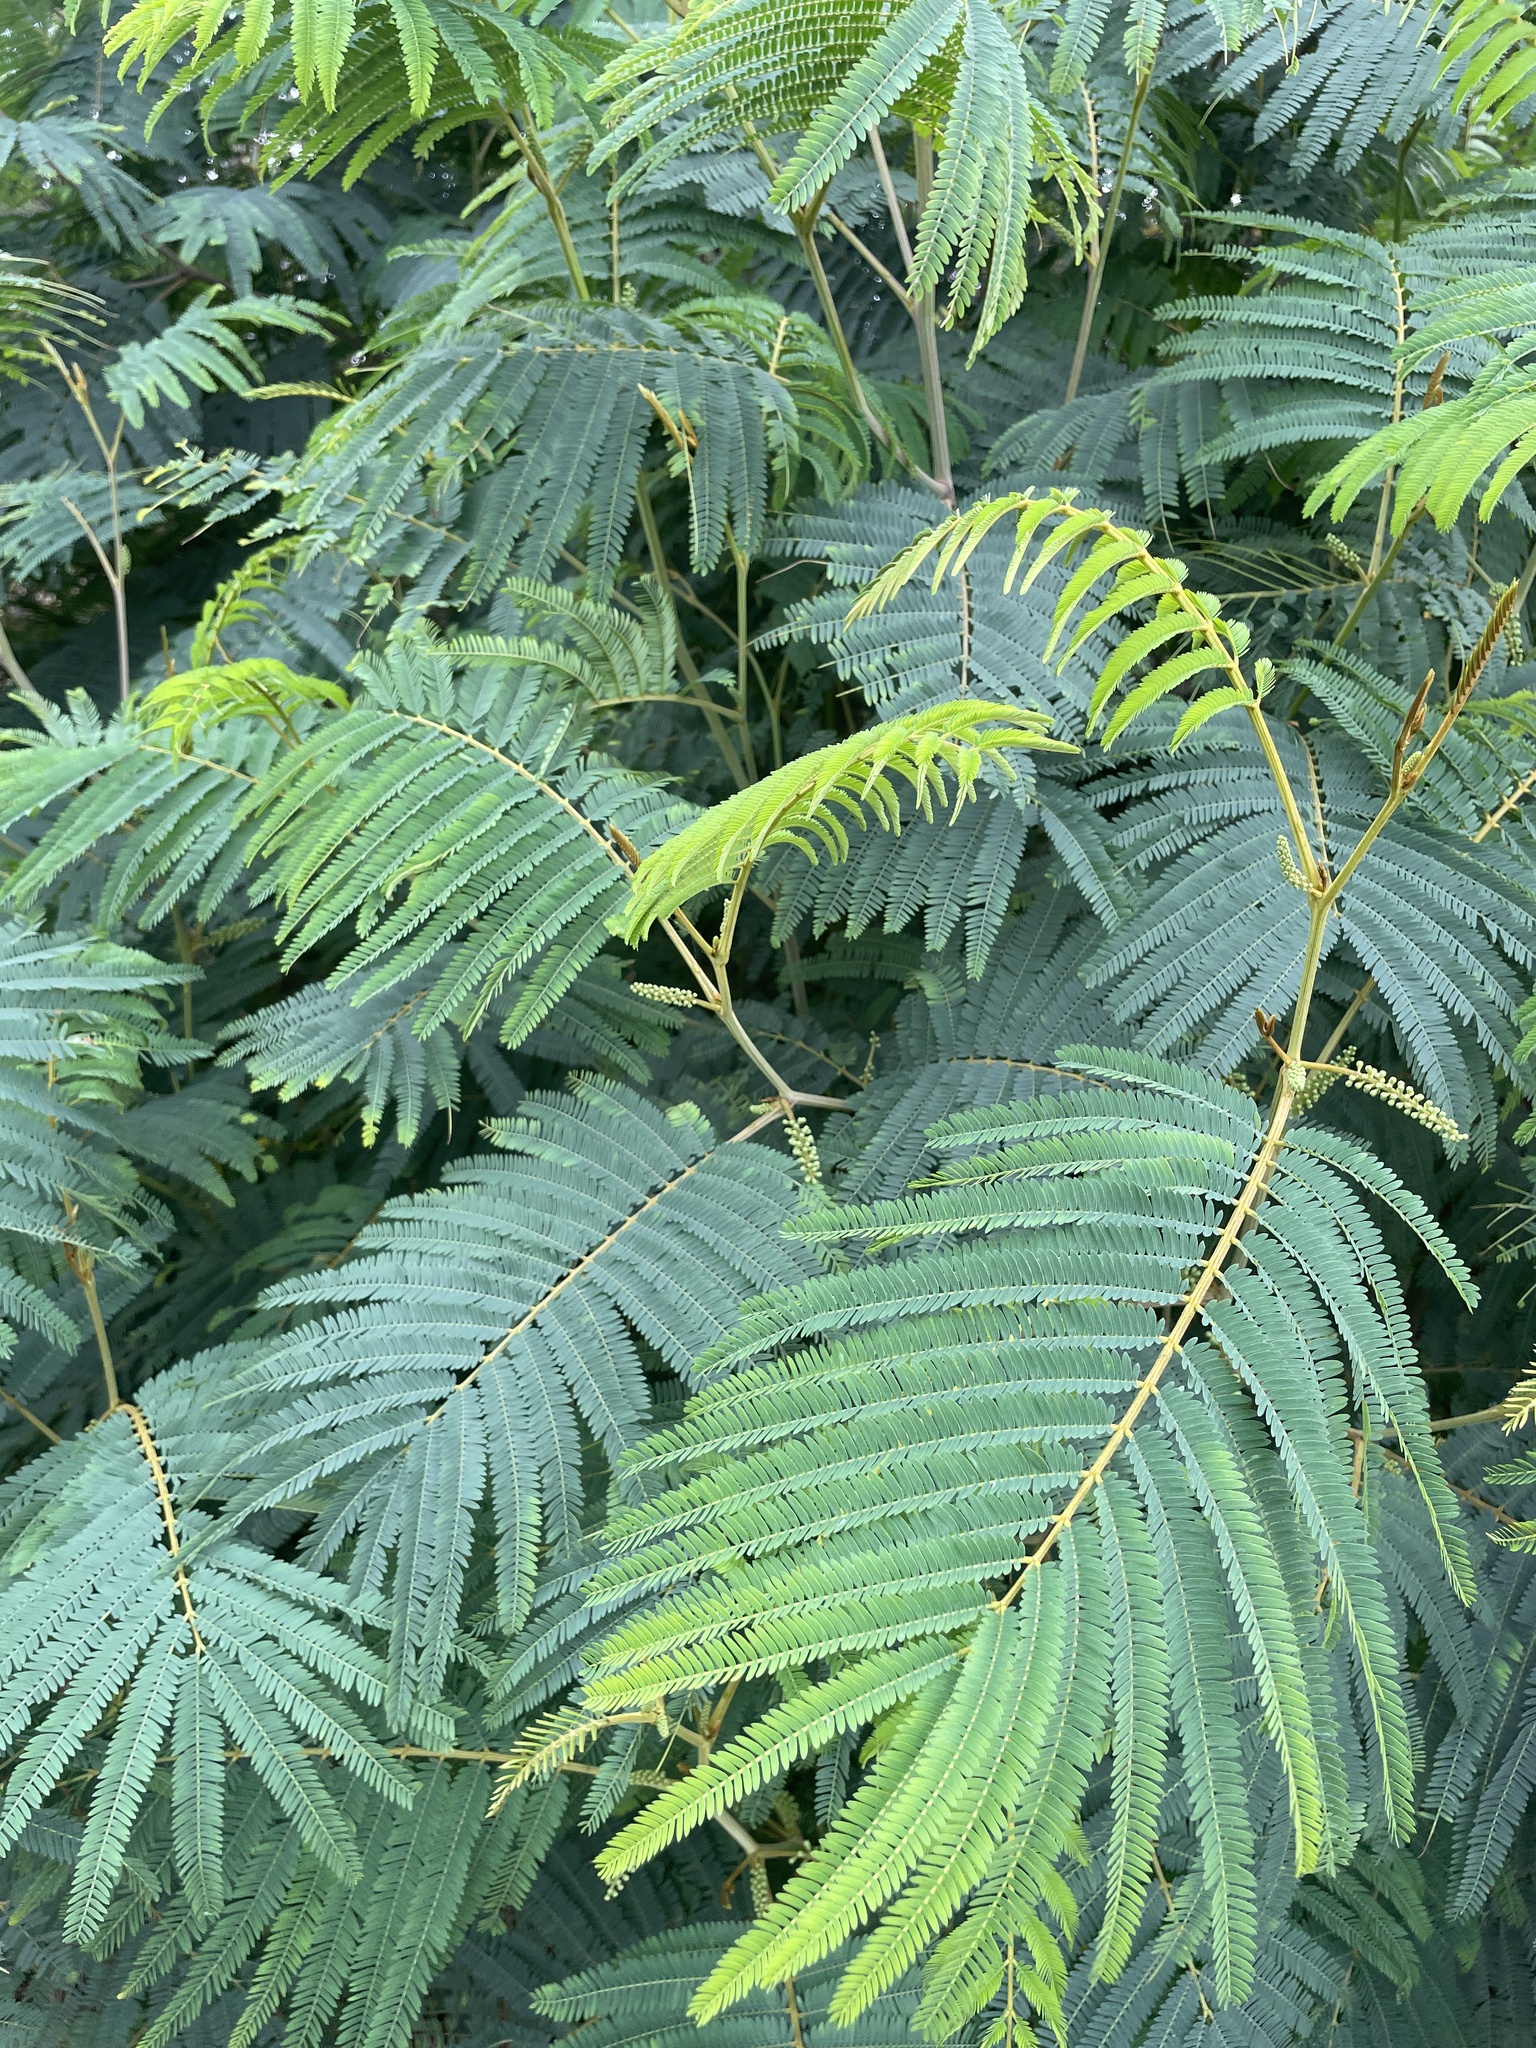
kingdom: Plantae
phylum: Tracheophyta
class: Magnoliopsida
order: Fabales
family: Fabaceae
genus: Paraserianthes
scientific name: Paraserianthes lophantha
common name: Plume albizia
